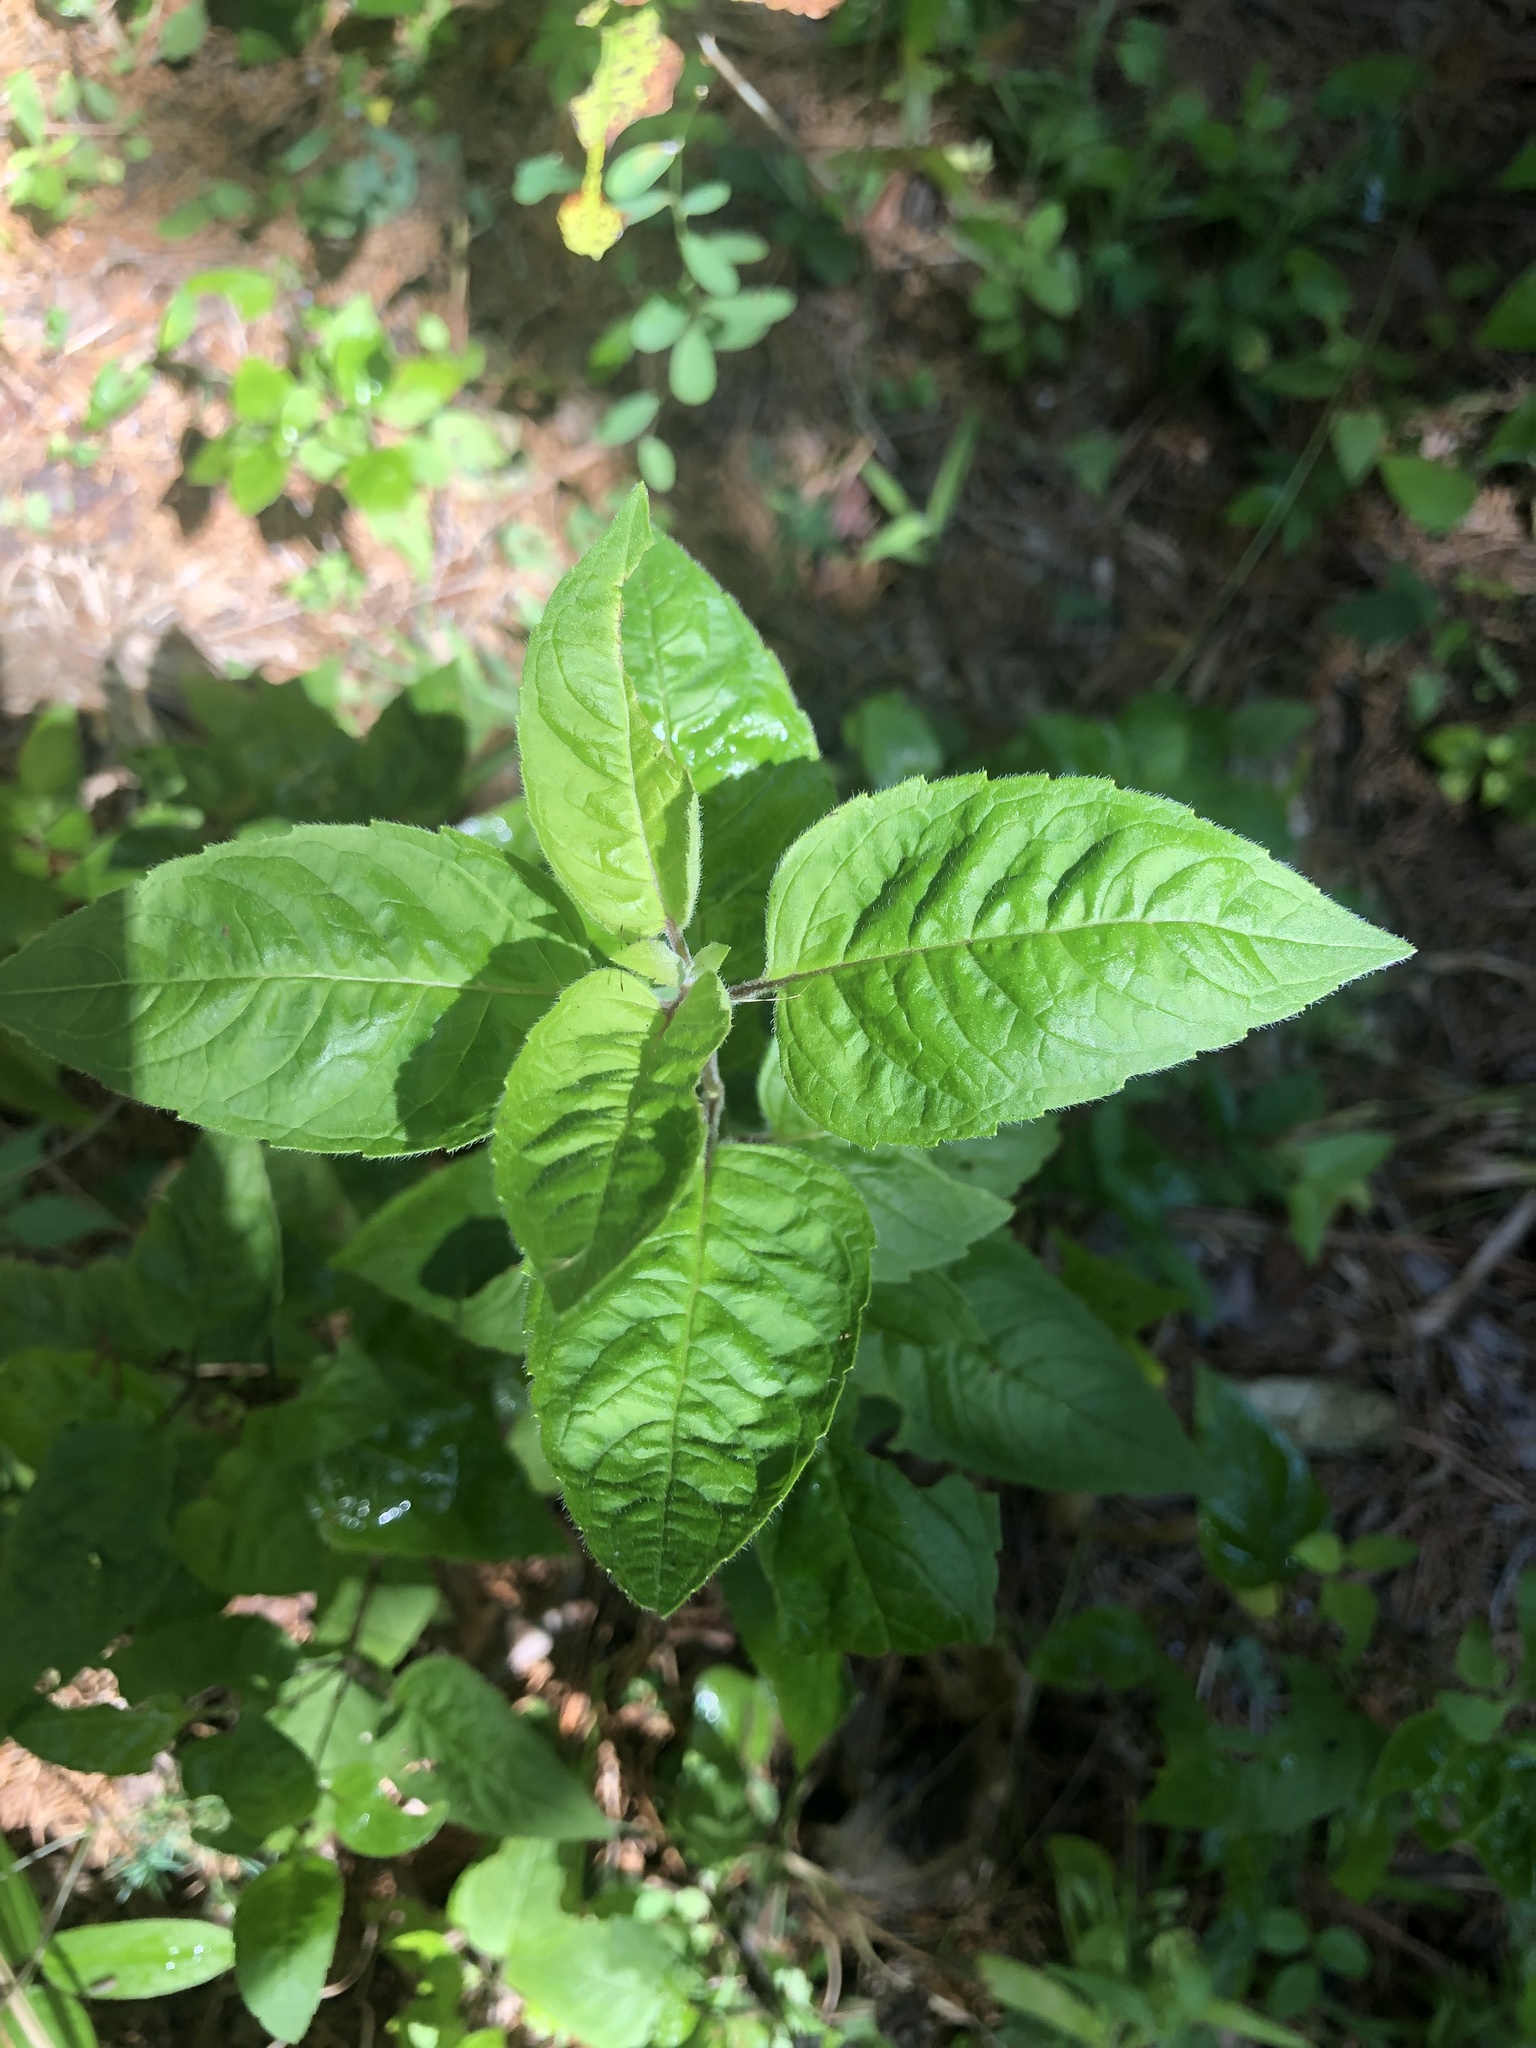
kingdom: Plantae
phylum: Tracheophyta
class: Magnoliopsida
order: Lamiales
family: Lamiaceae
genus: Monarda
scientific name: Monarda fistulosa
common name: Purple beebalm
